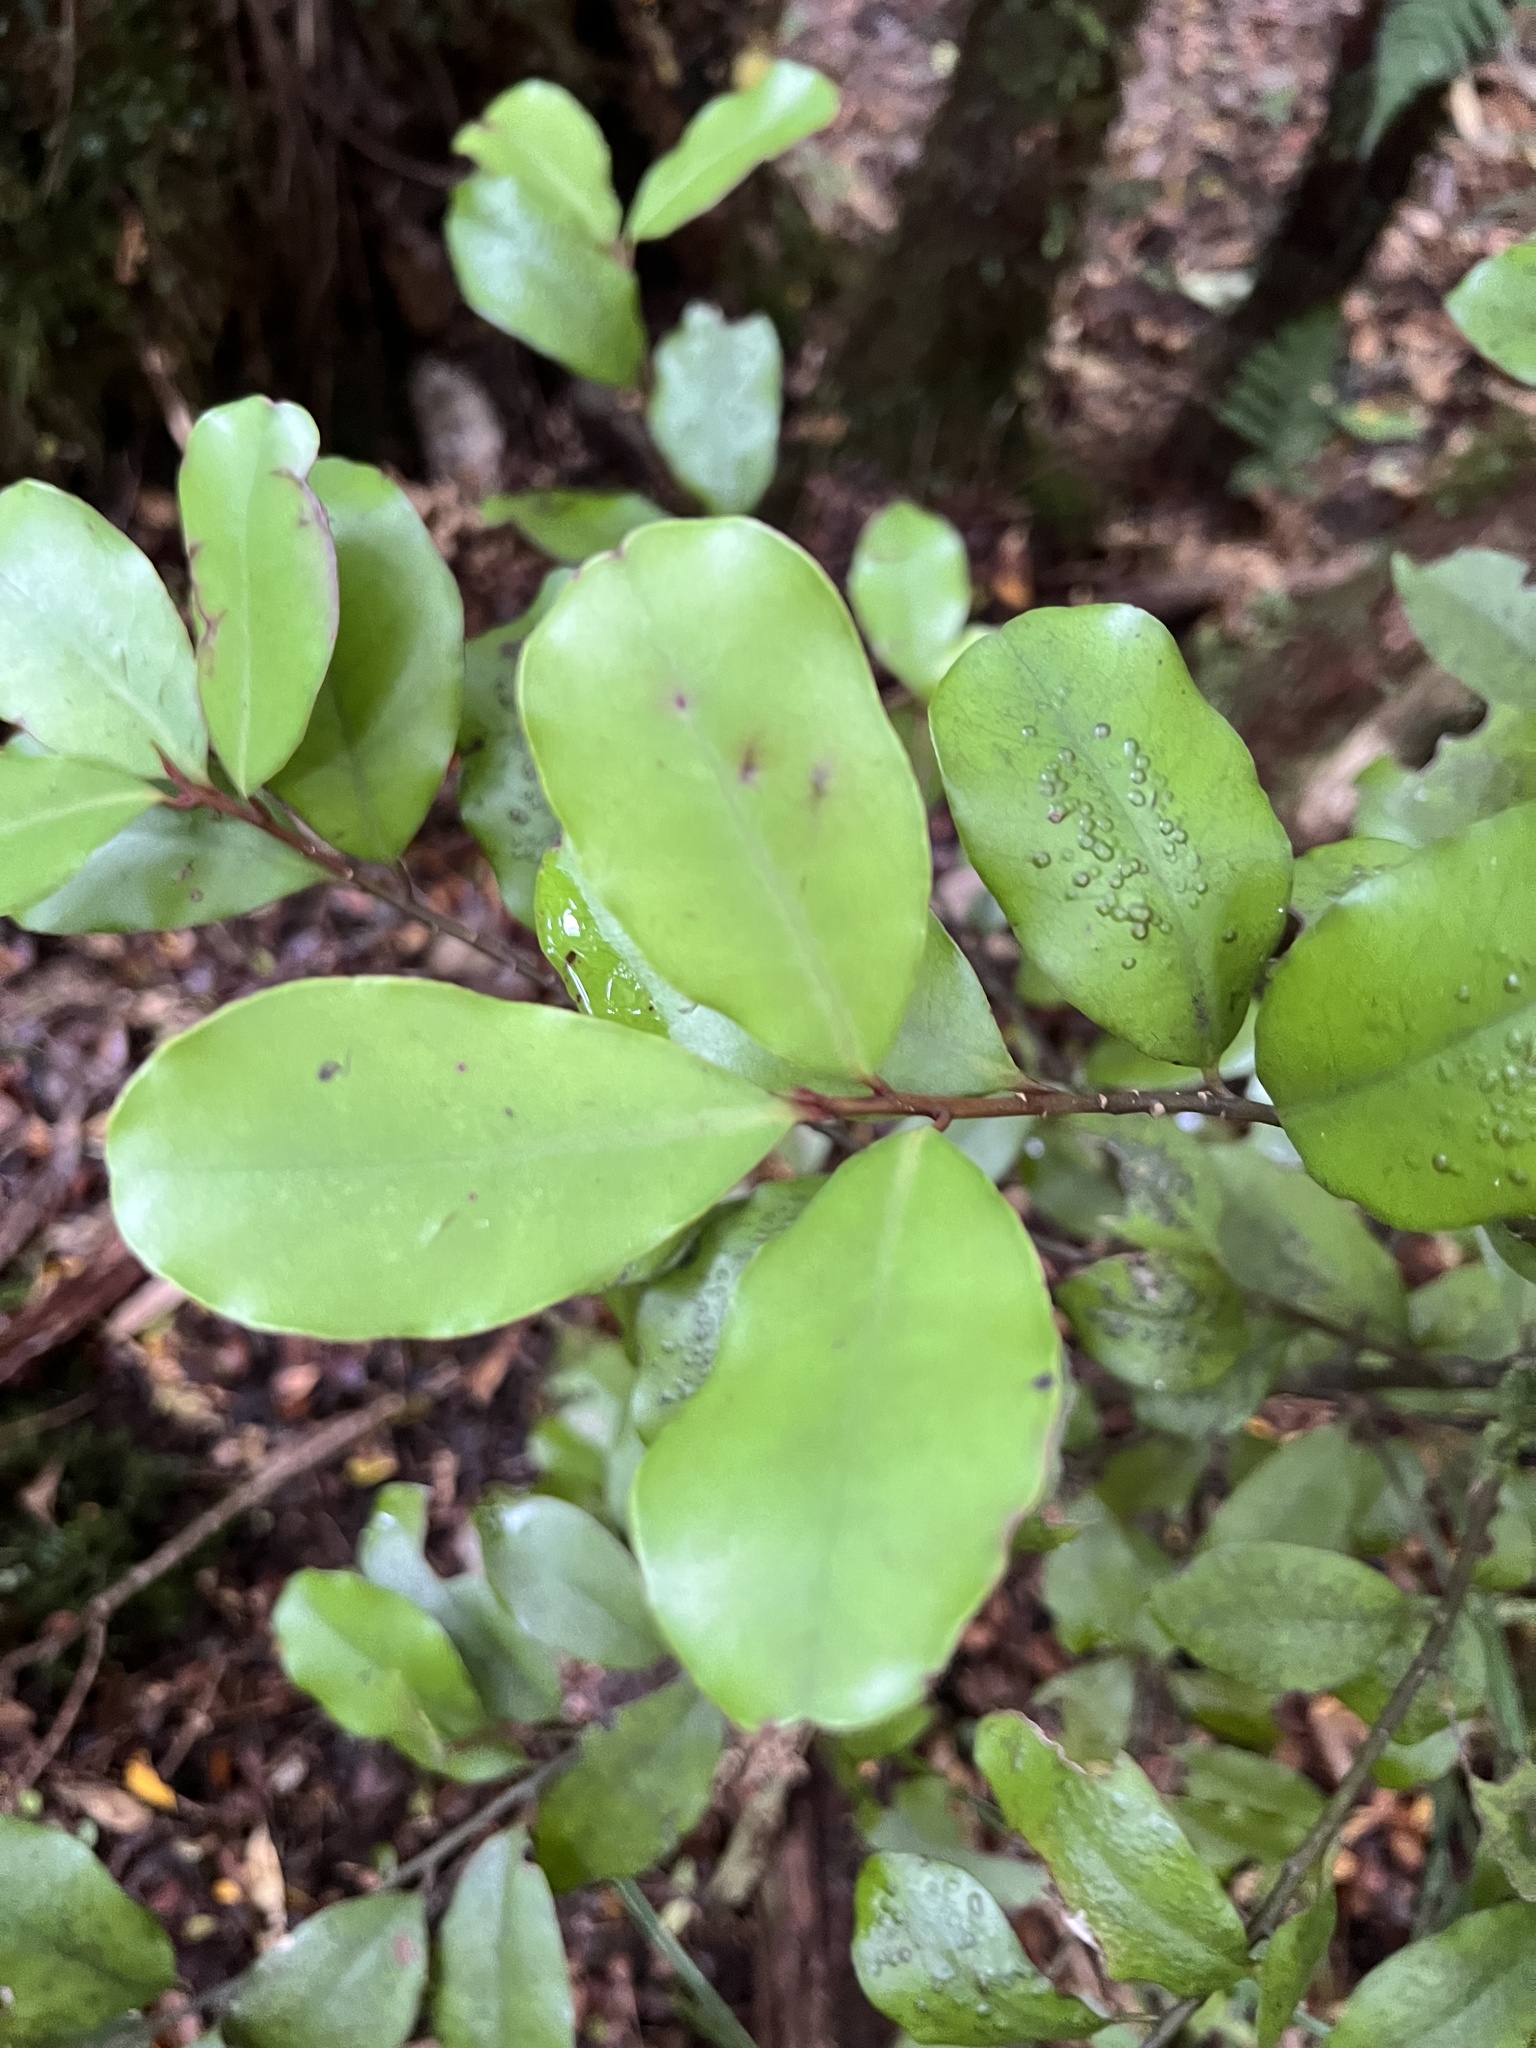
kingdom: Plantae
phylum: Tracheophyta
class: Magnoliopsida
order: Canellales
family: Winteraceae
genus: Pseudowintera
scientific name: Pseudowintera colorata
